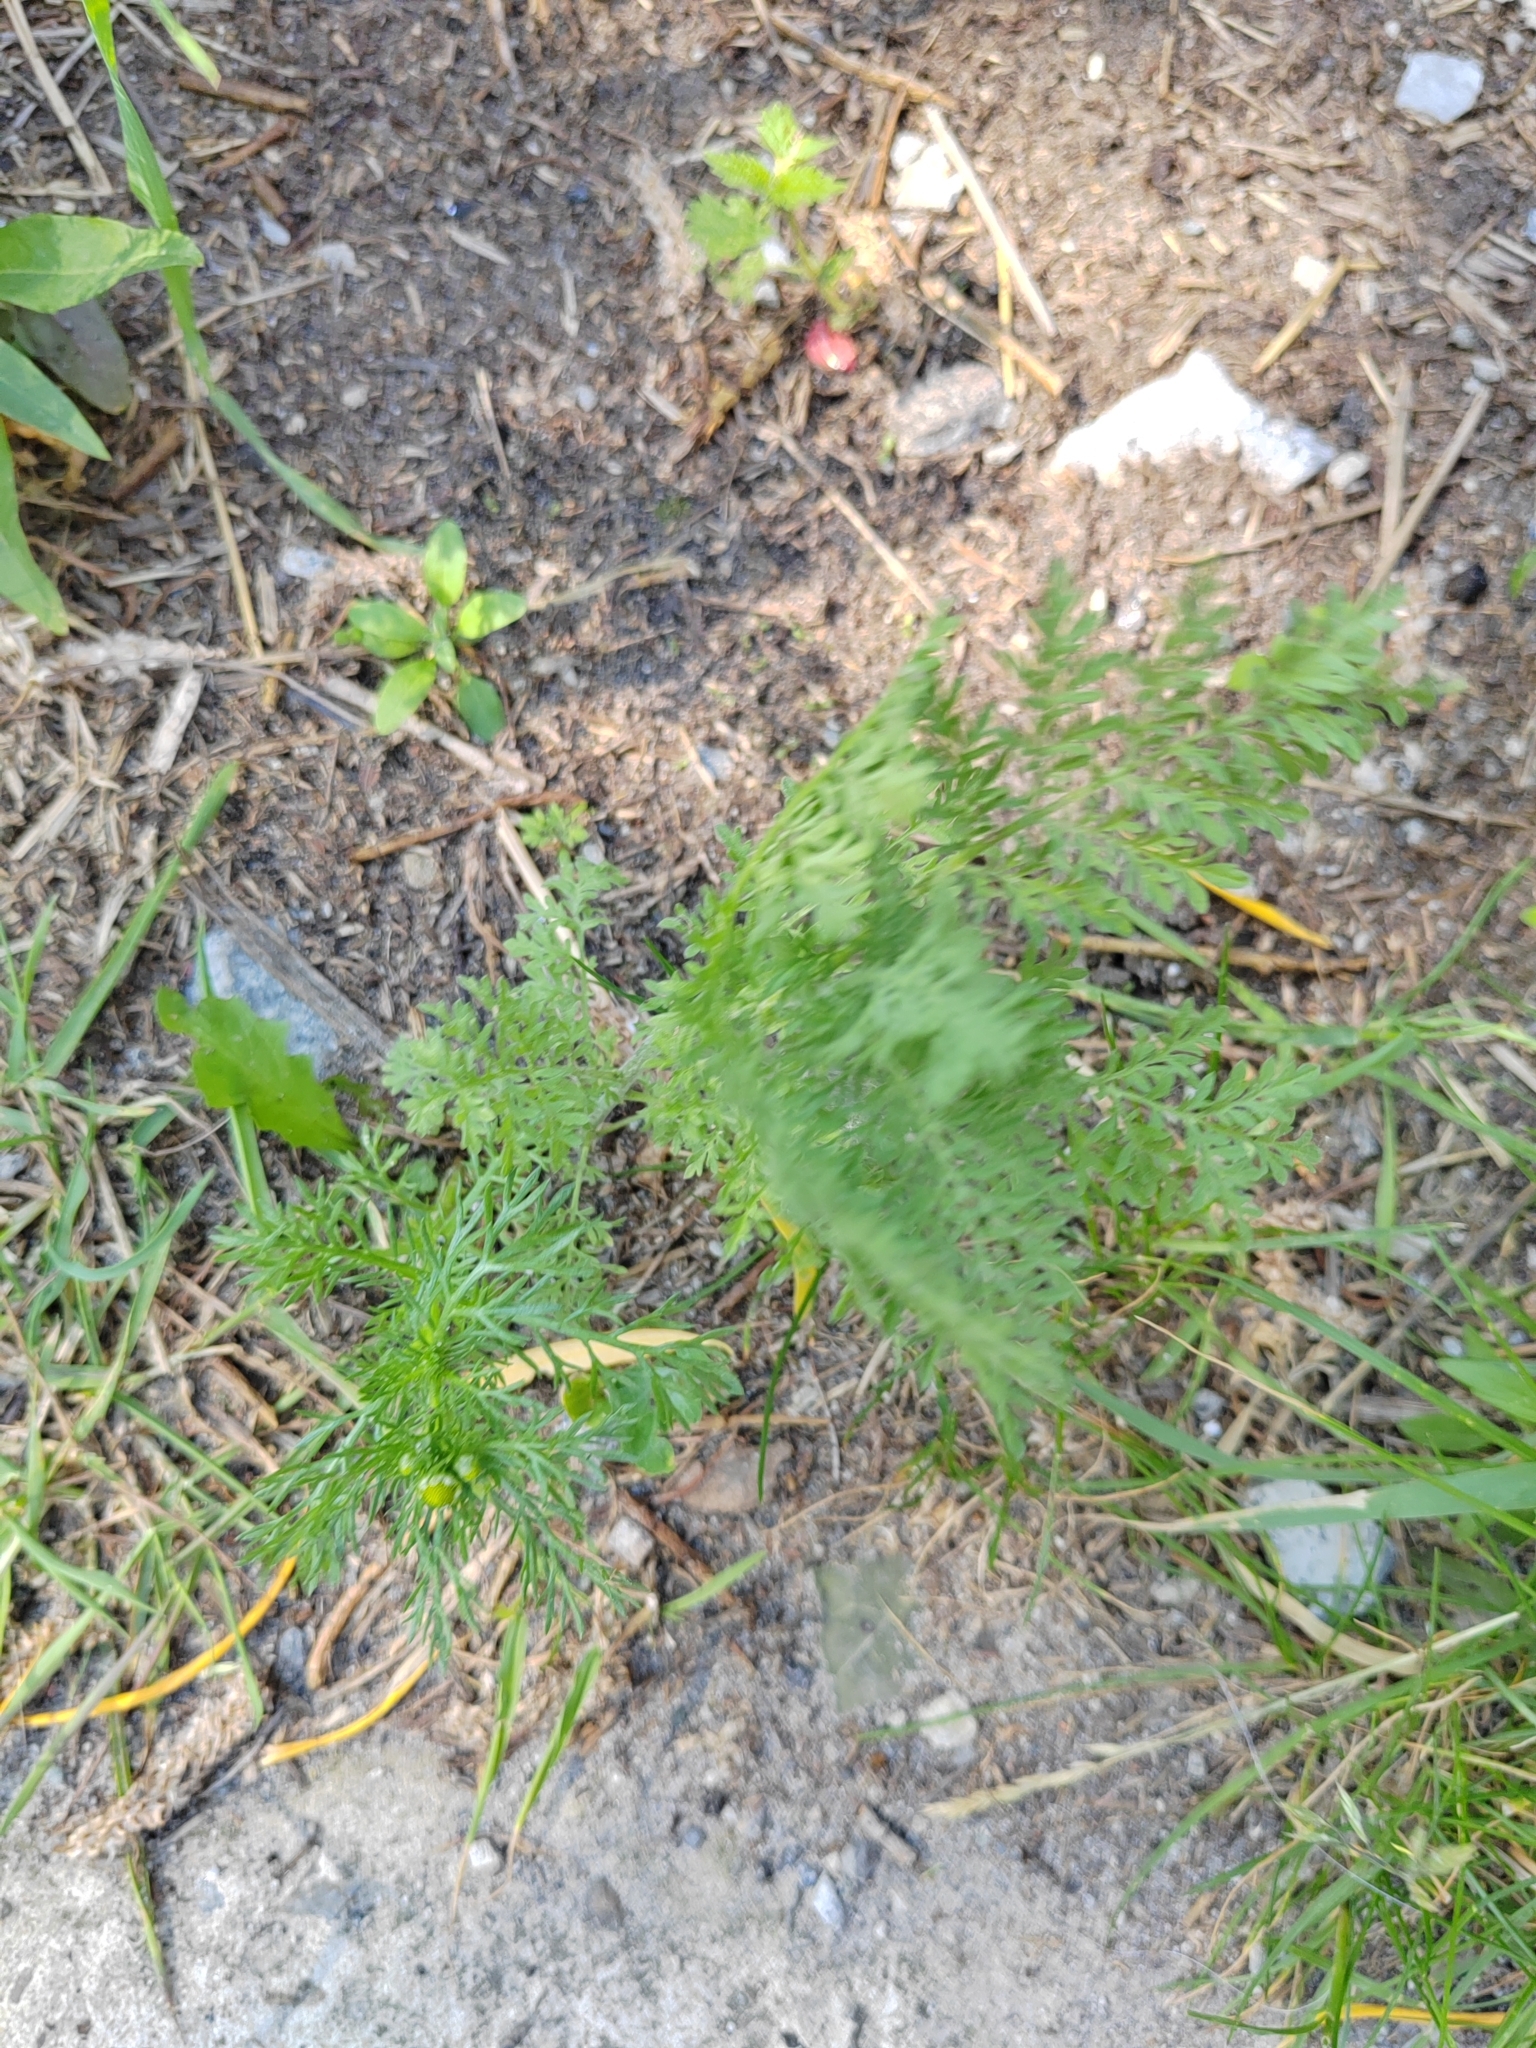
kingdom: Plantae
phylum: Tracheophyta
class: Magnoliopsida
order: Brassicales
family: Brassicaceae
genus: Descurainia
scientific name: Descurainia sophia
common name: Flixweed
